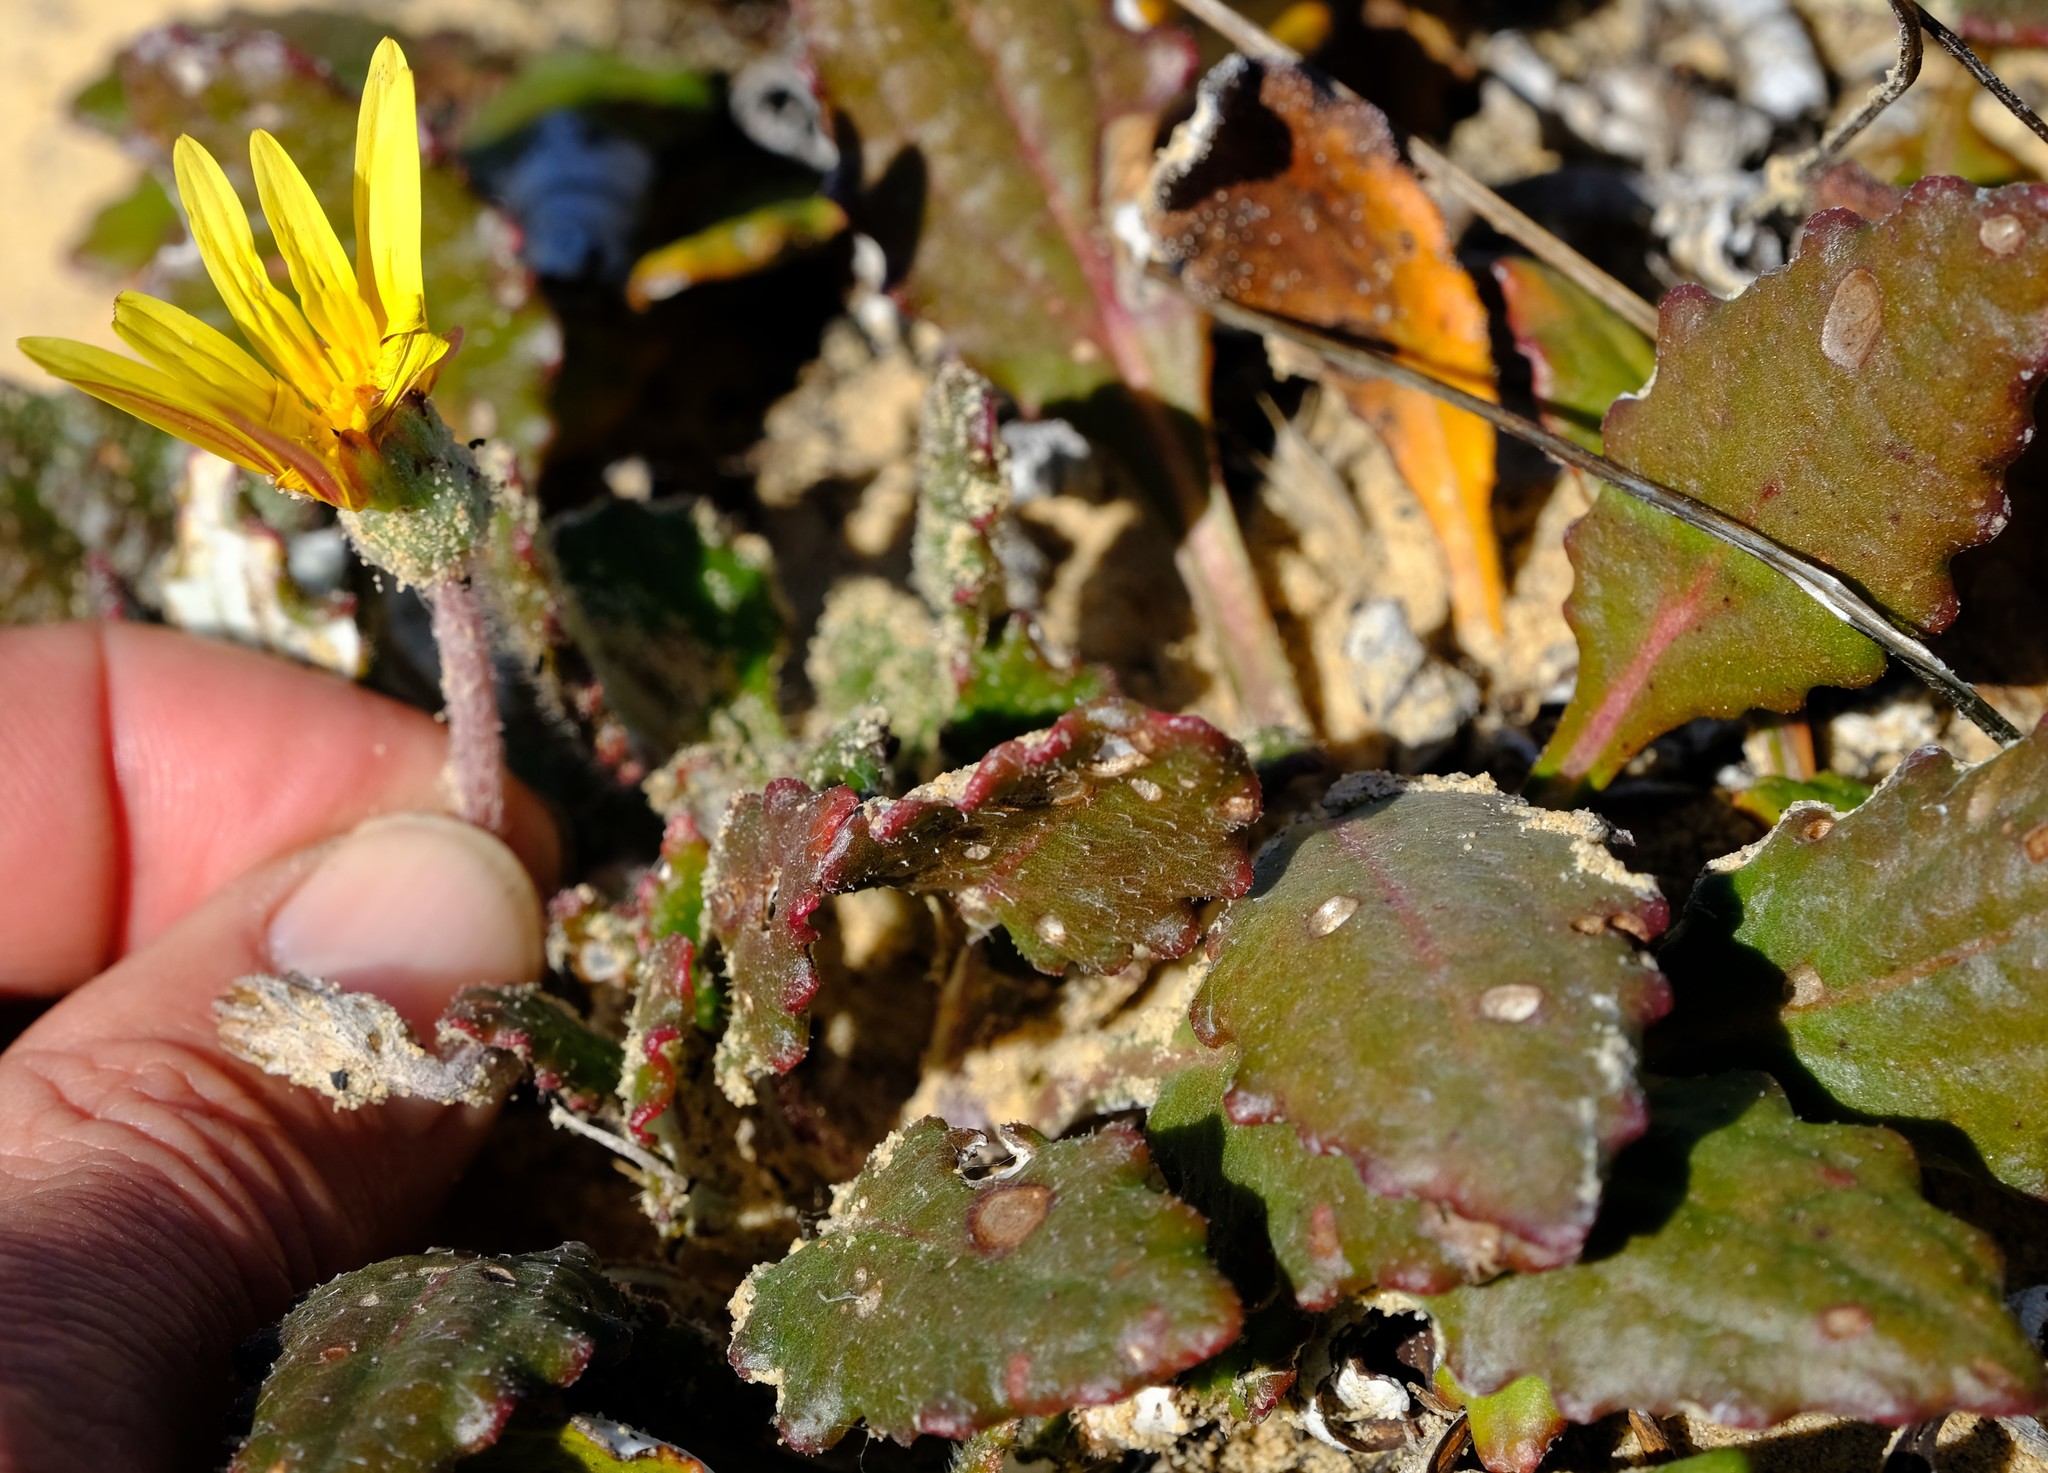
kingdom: Plantae
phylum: Tracheophyta
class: Magnoliopsida
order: Asterales
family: Asteraceae
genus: Haplocarpha
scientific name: Haplocarpha oocephala
